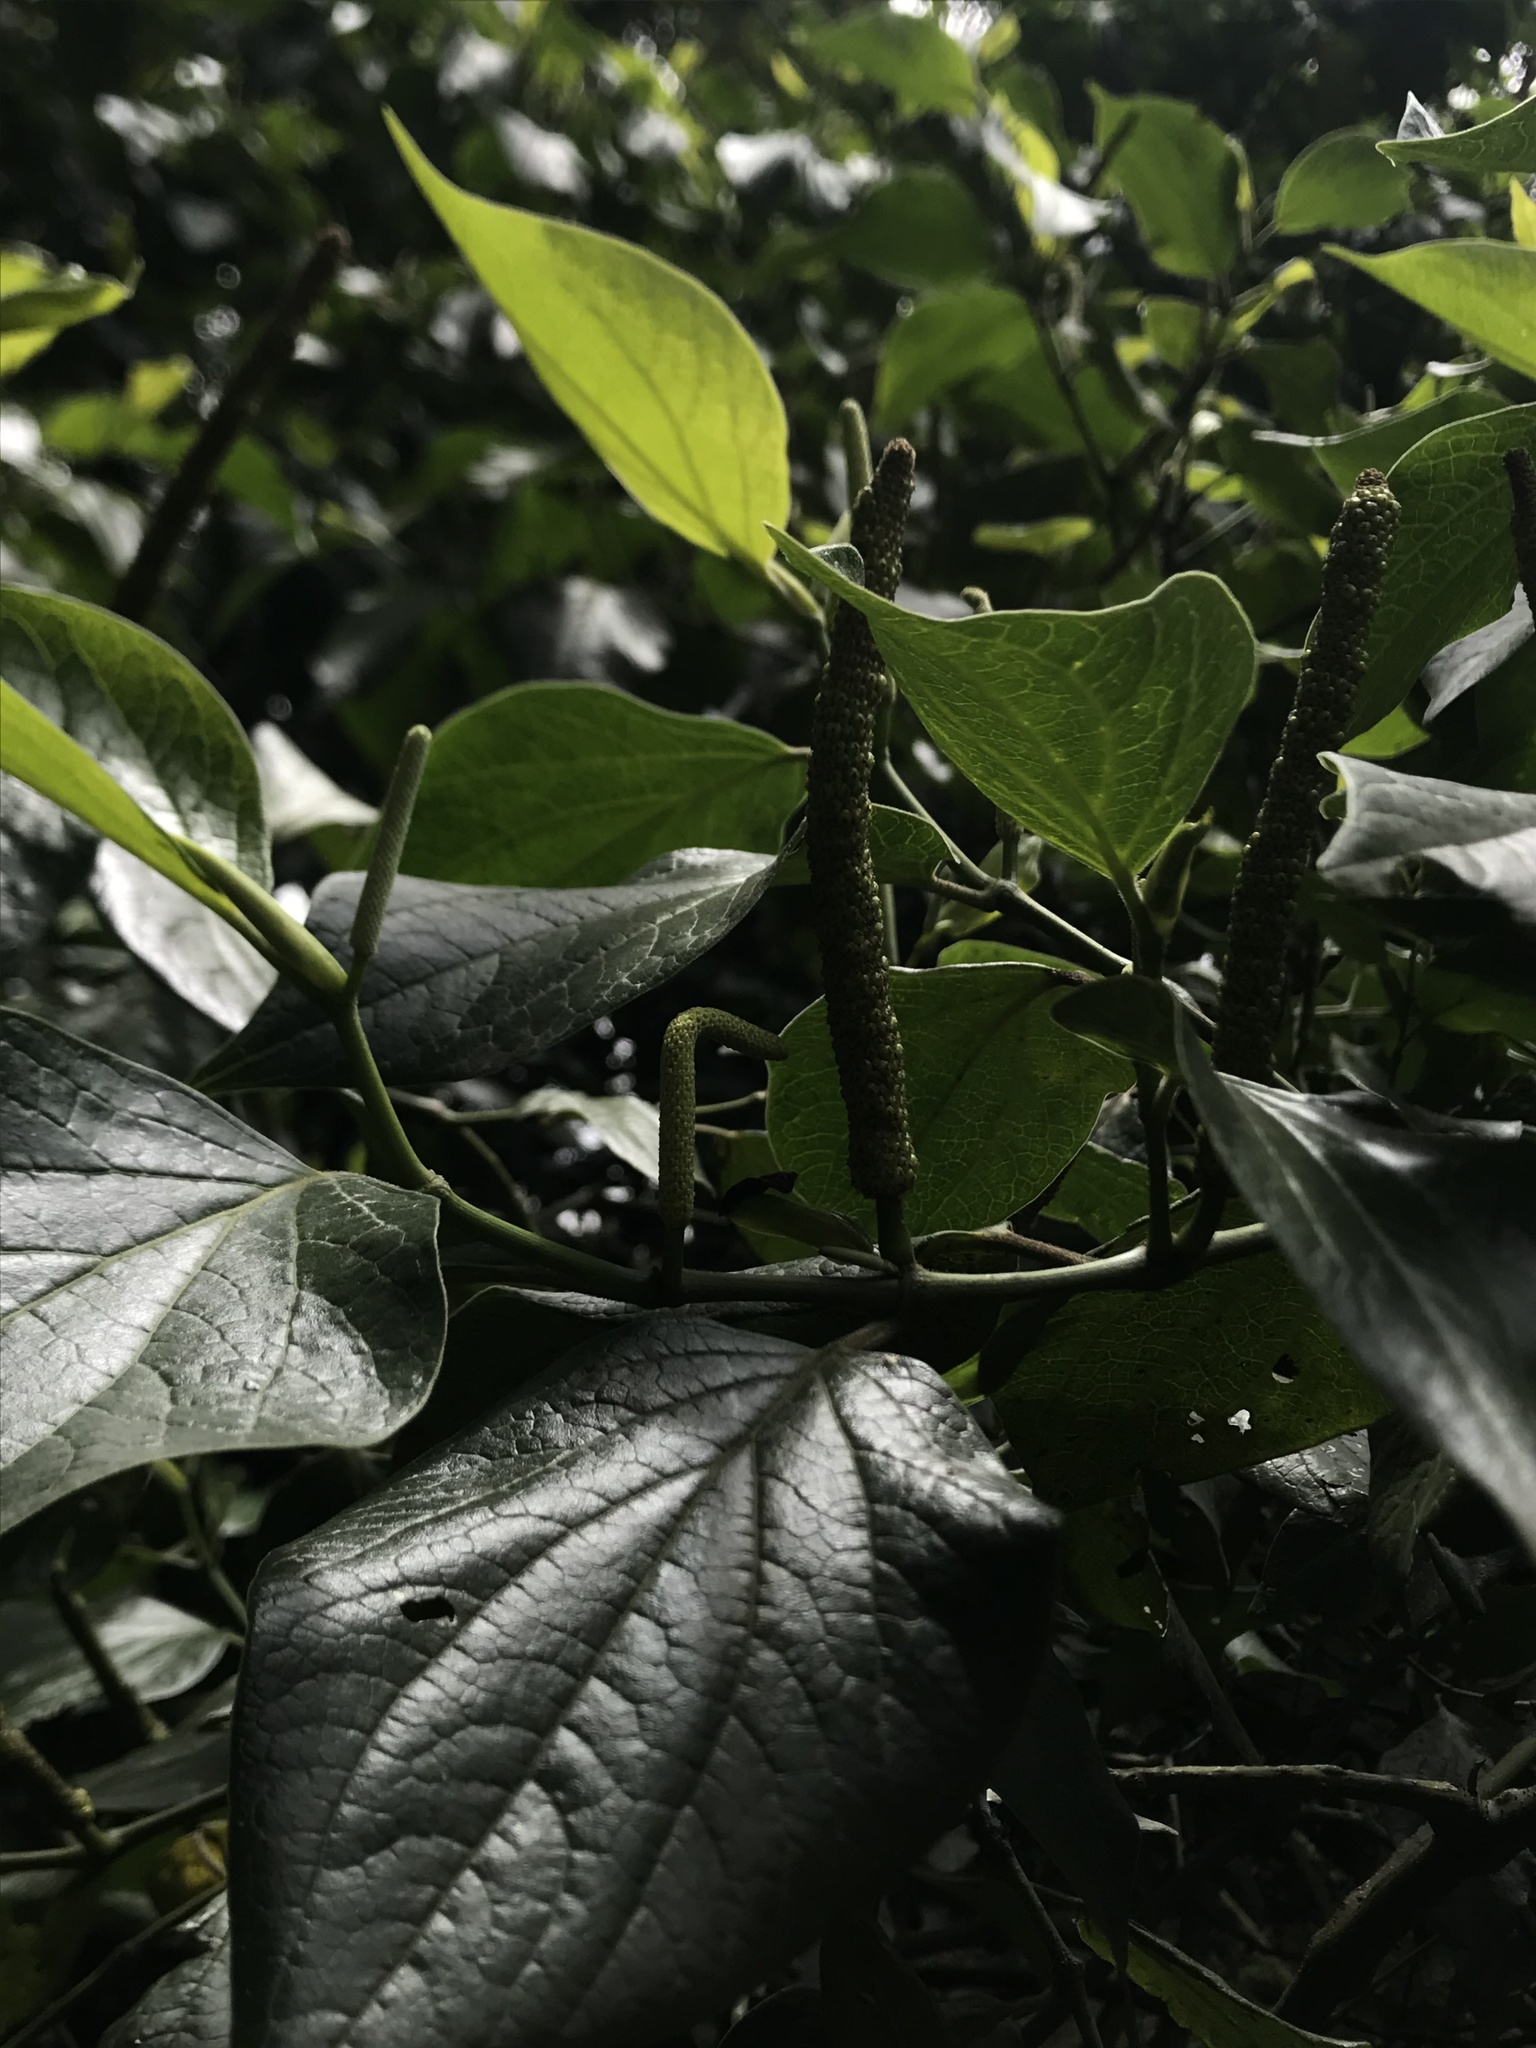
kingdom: Plantae
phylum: Tracheophyta
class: Magnoliopsida
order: Piperales
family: Piperaceae
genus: Piper
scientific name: Piper barbatum
